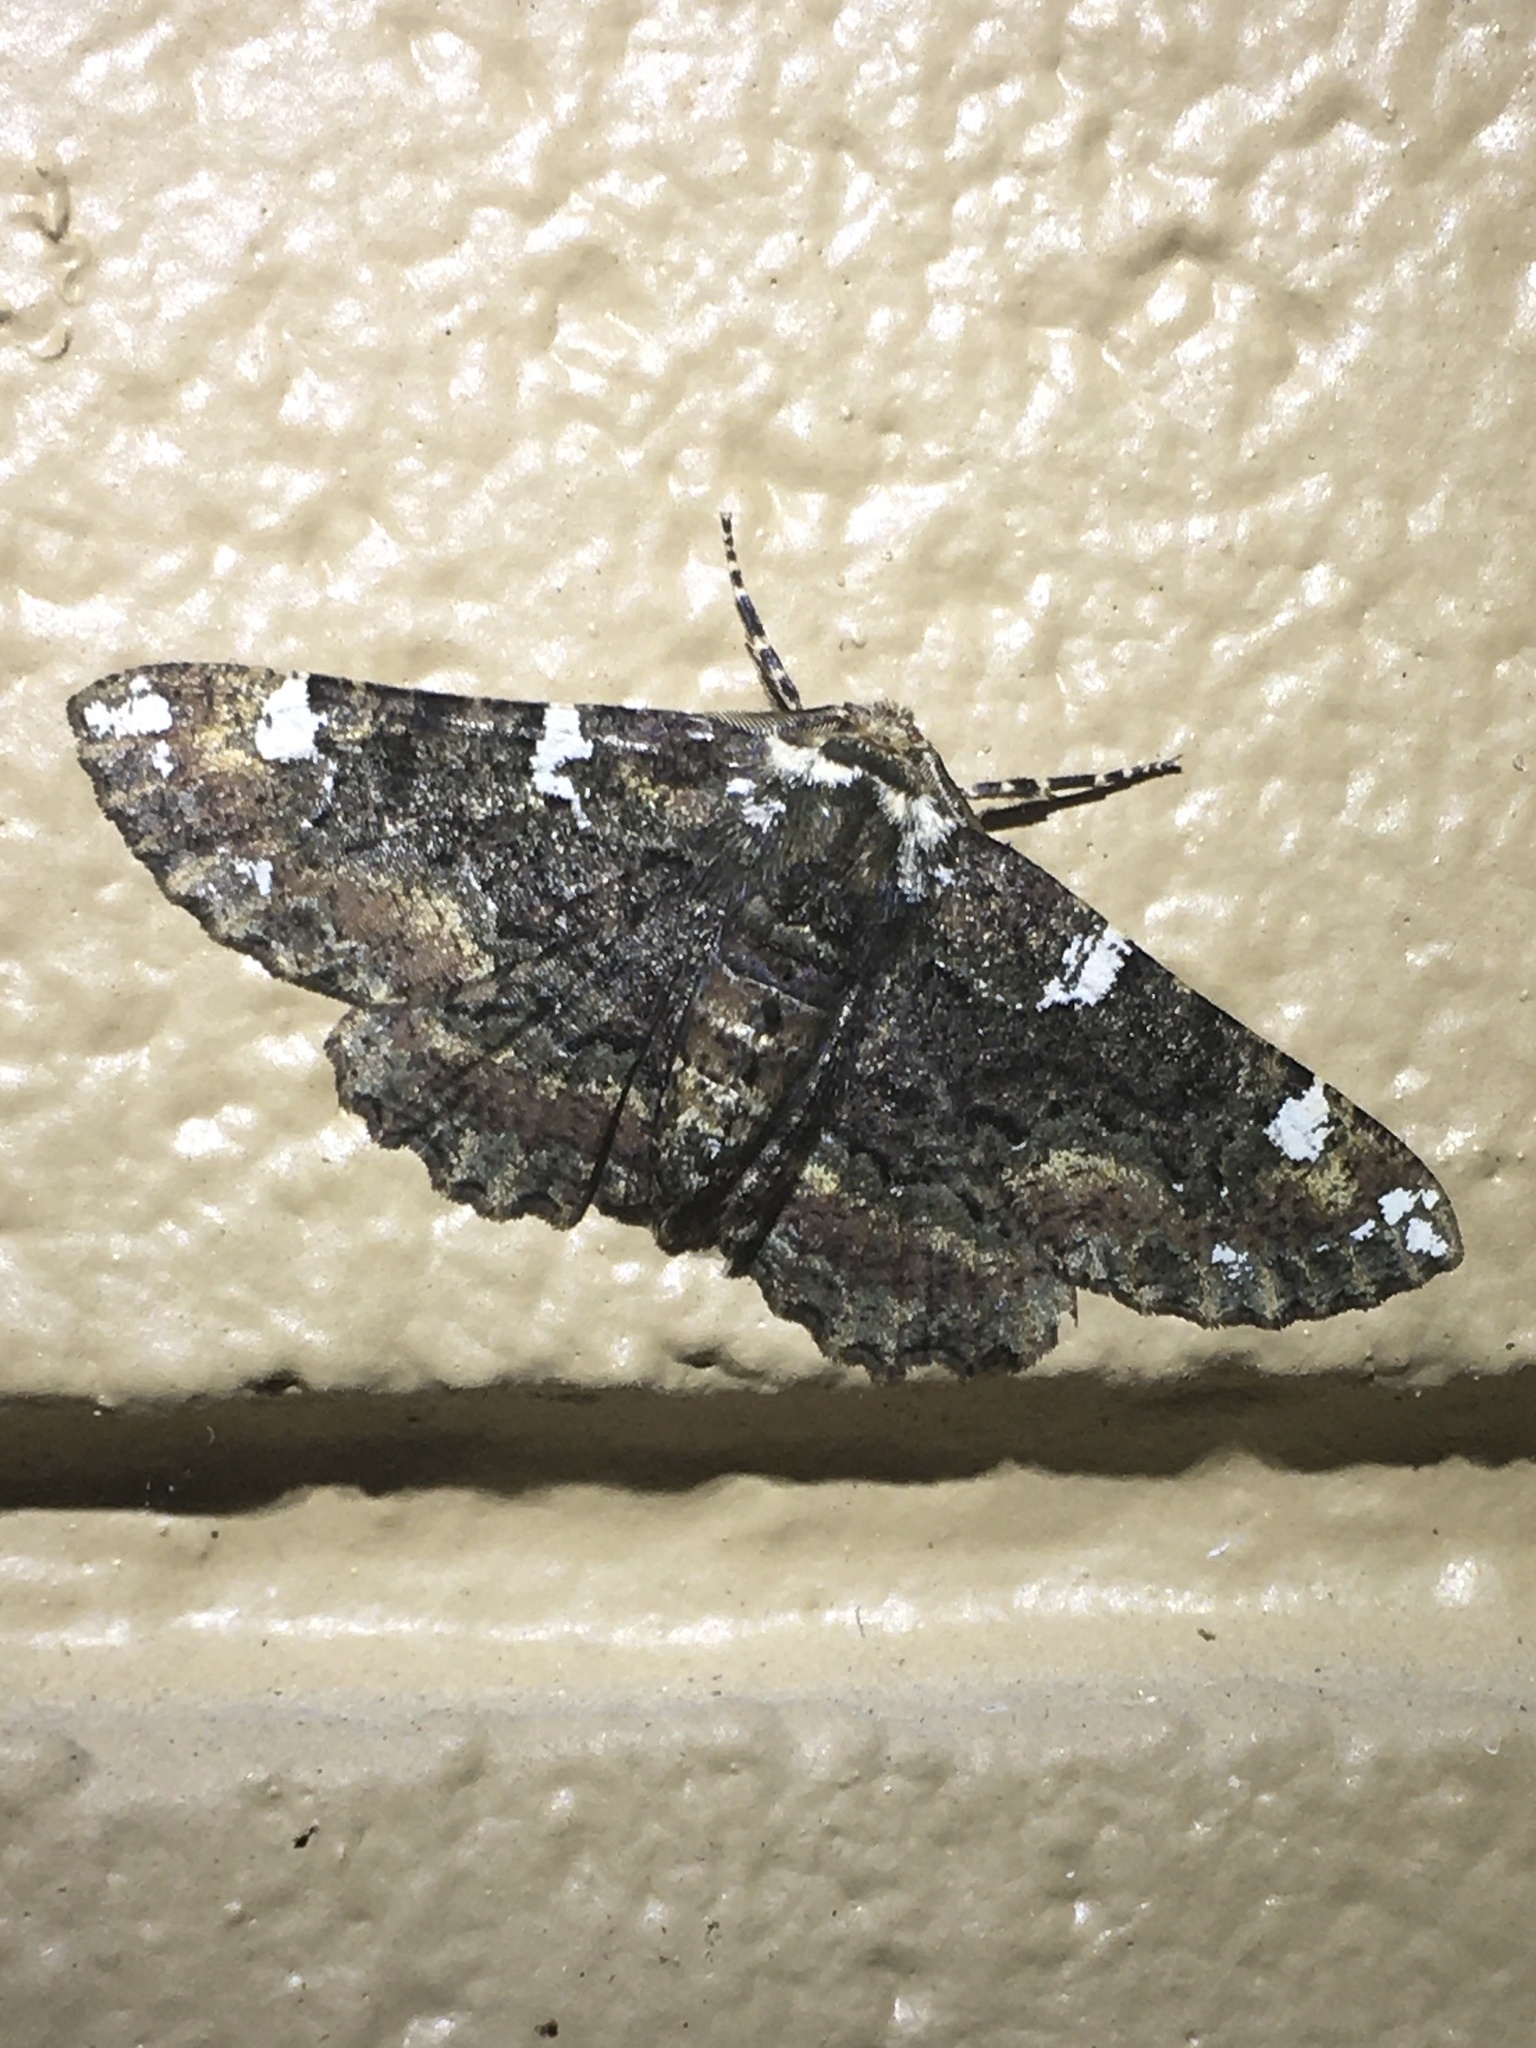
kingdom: Animalia
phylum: Arthropoda
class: Insecta
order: Lepidoptera
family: Geometridae
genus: Phaeoura
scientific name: Phaeoura quernaria
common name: Oak beauty
